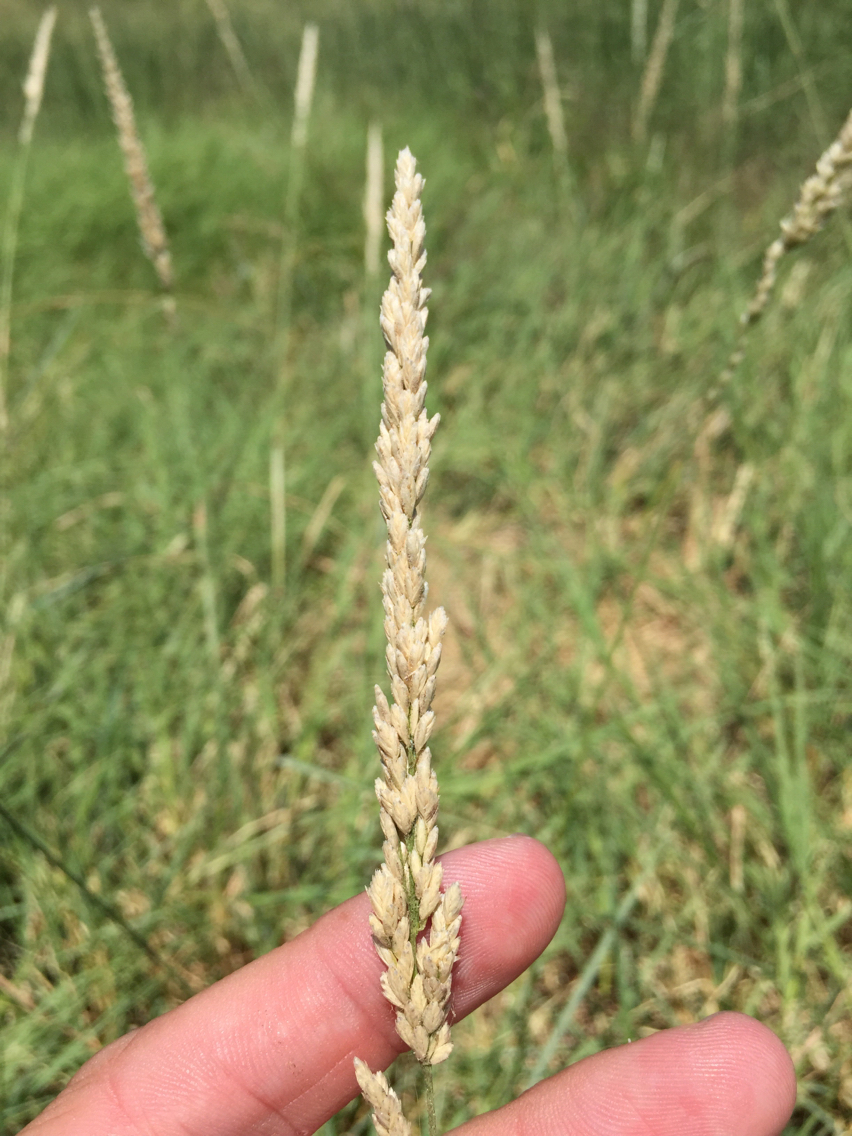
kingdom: Plantae
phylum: Tracheophyta
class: Liliopsida
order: Poales
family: Poaceae
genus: Tridens
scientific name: Tridens albescens
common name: White tridens
